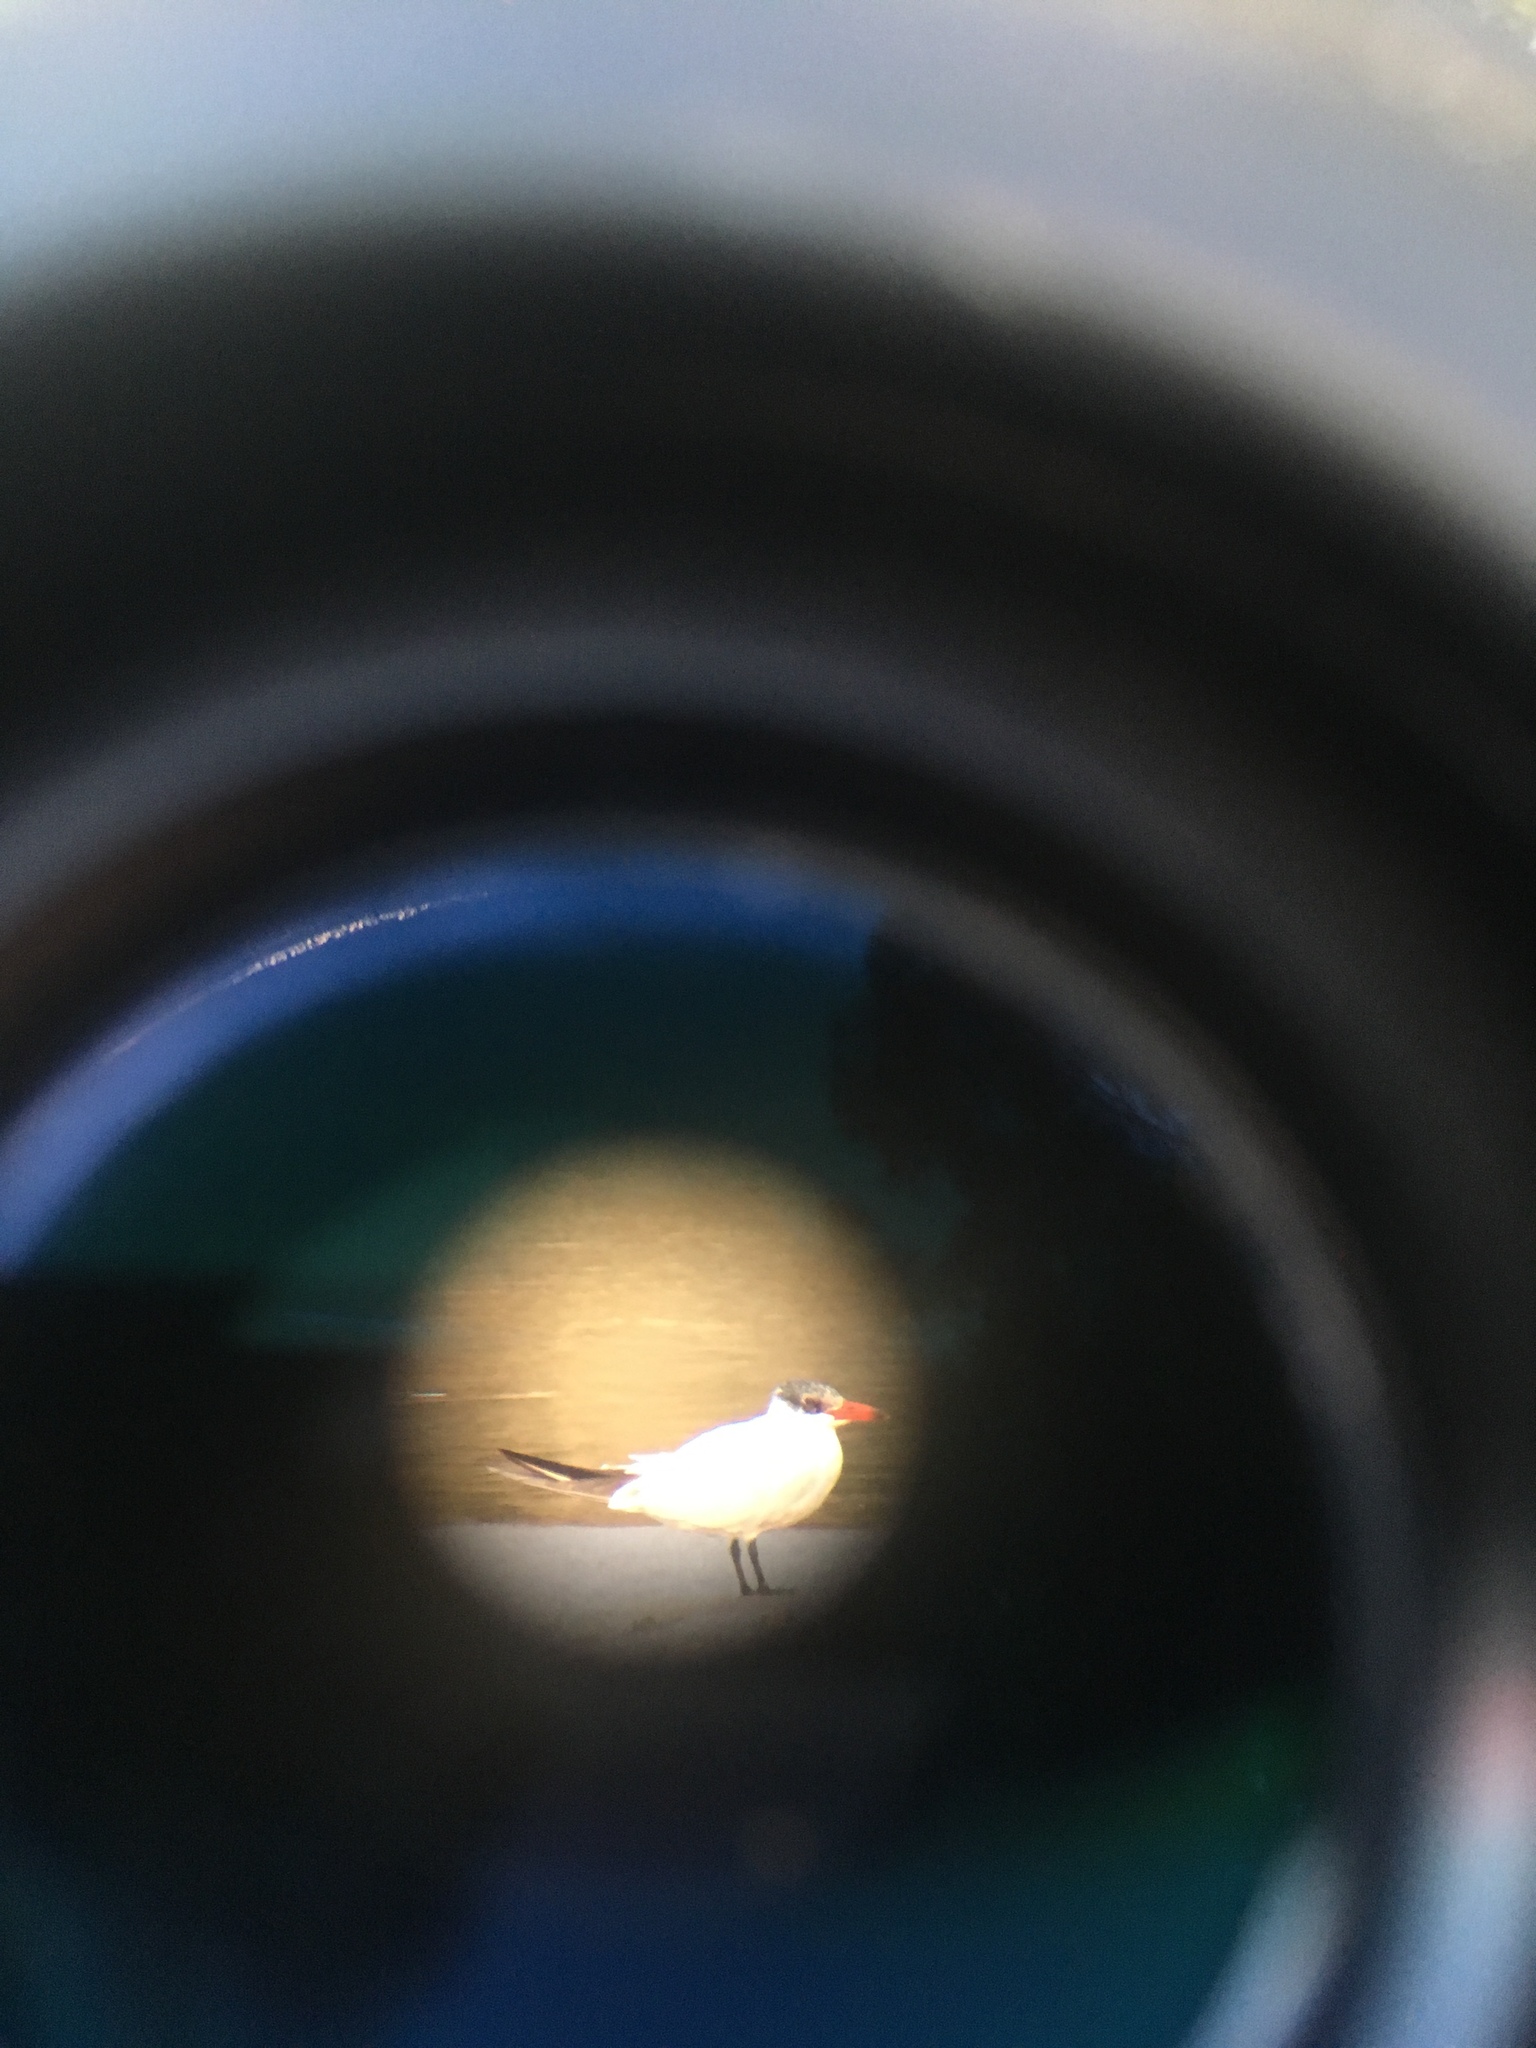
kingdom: Animalia
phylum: Chordata
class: Aves
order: Charadriiformes
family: Laridae
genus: Hydroprogne
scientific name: Hydroprogne caspia
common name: Caspian tern
